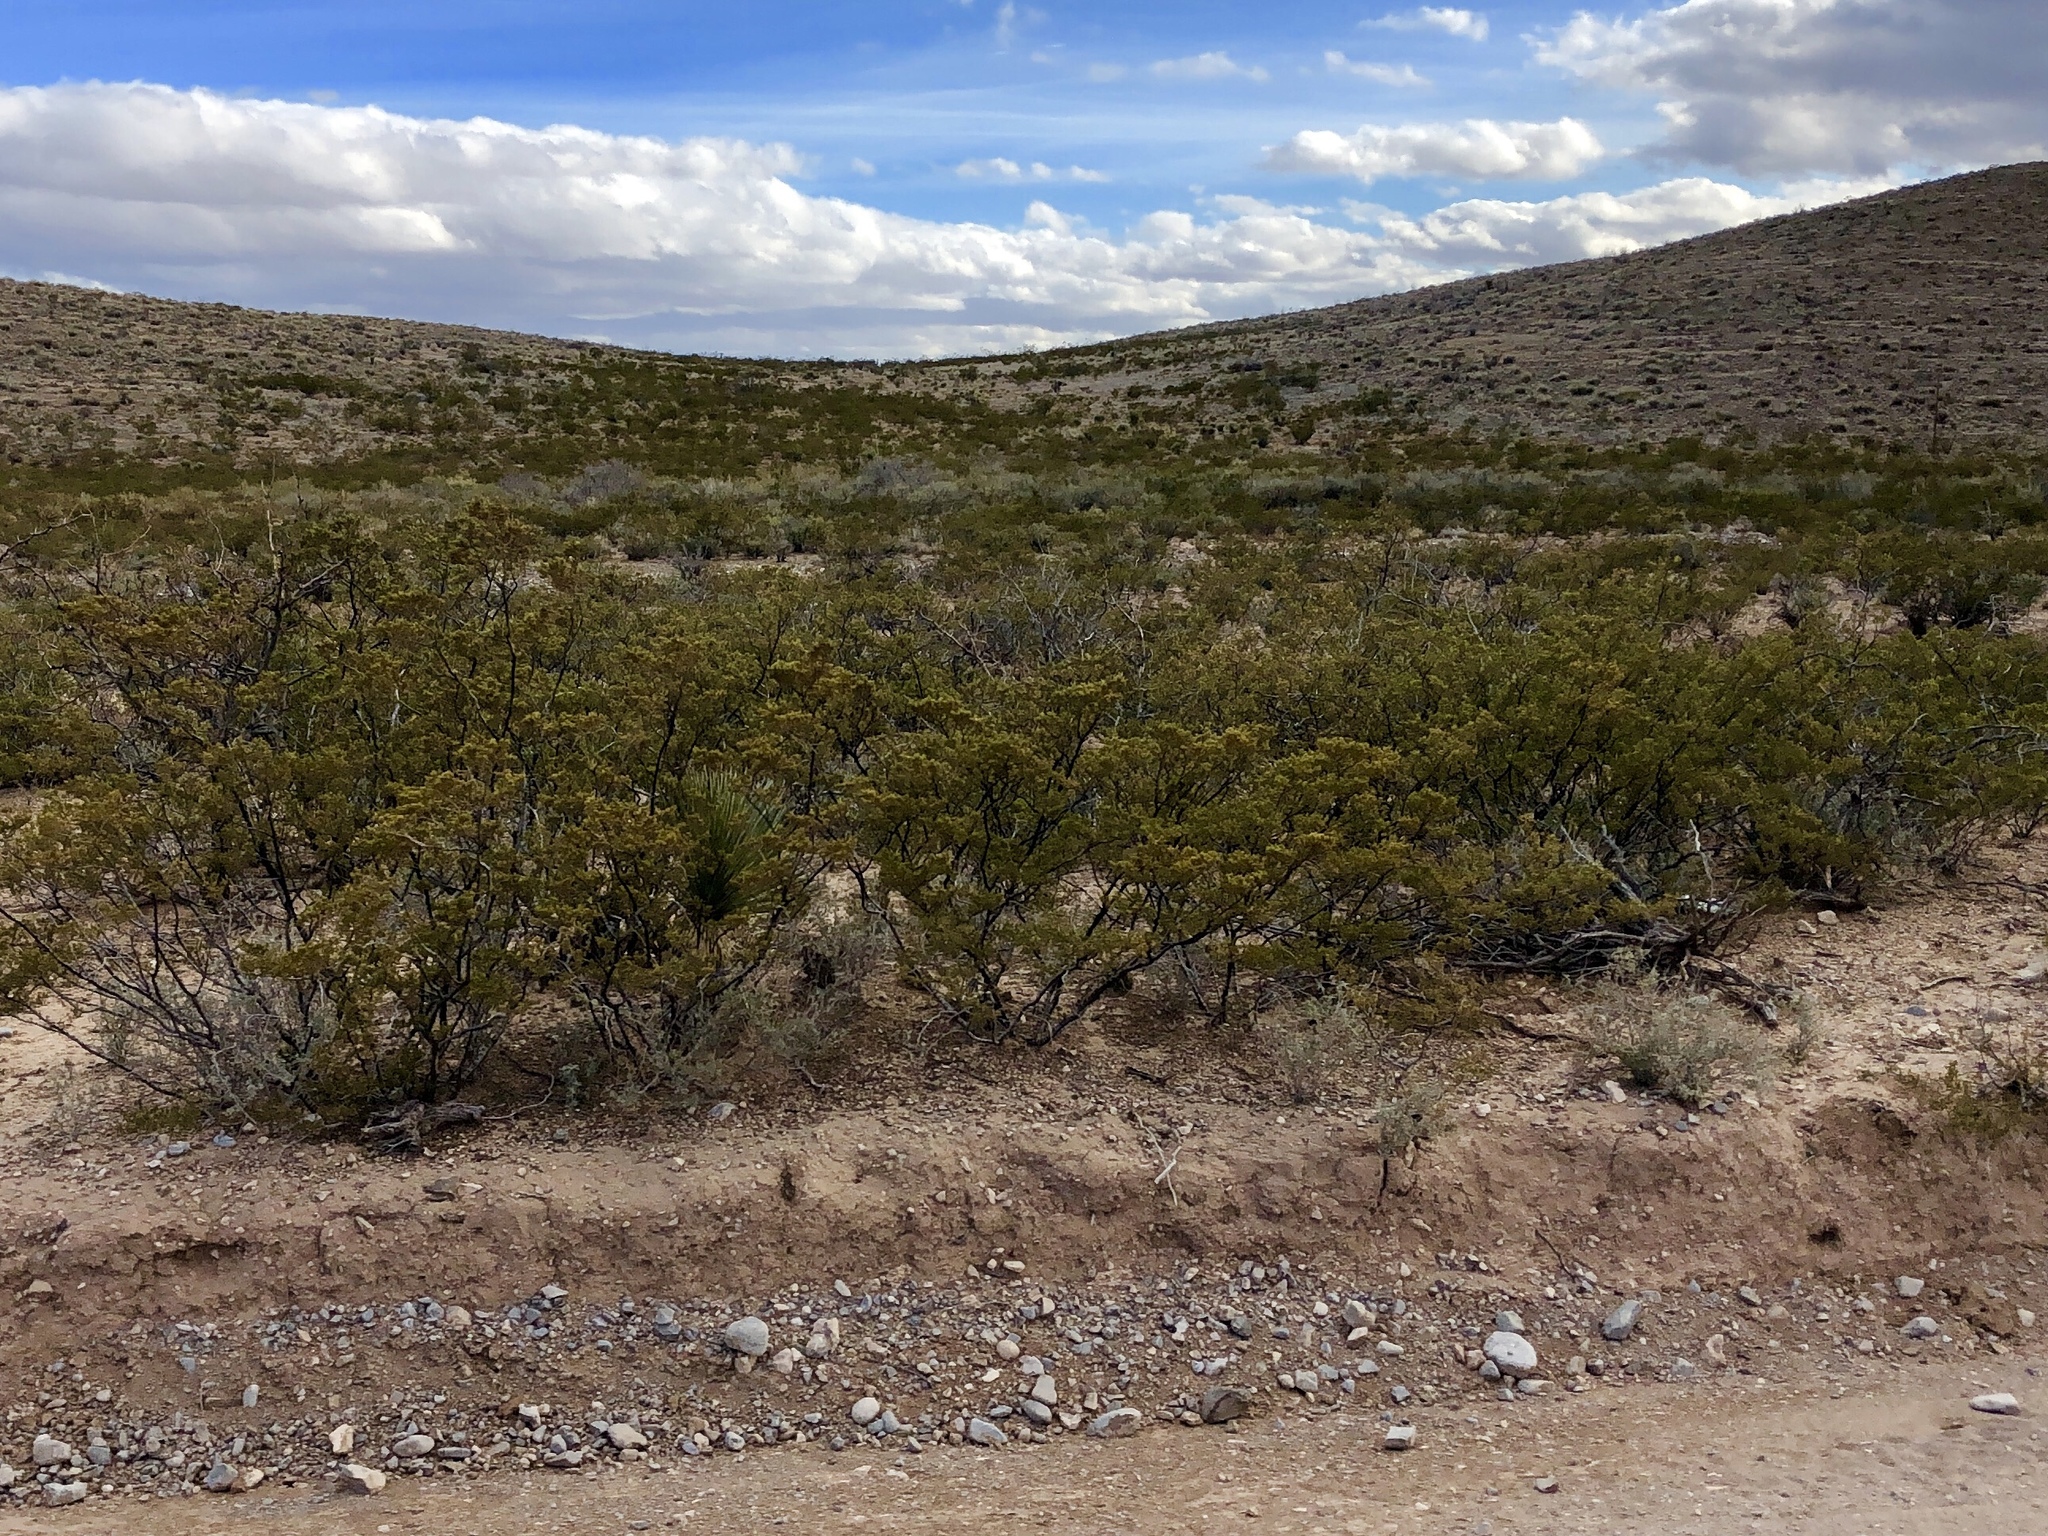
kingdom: Plantae
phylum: Tracheophyta
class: Magnoliopsida
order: Zygophyllales
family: Zygophyllaceae
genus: Larrea
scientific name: Larrea tridentata
